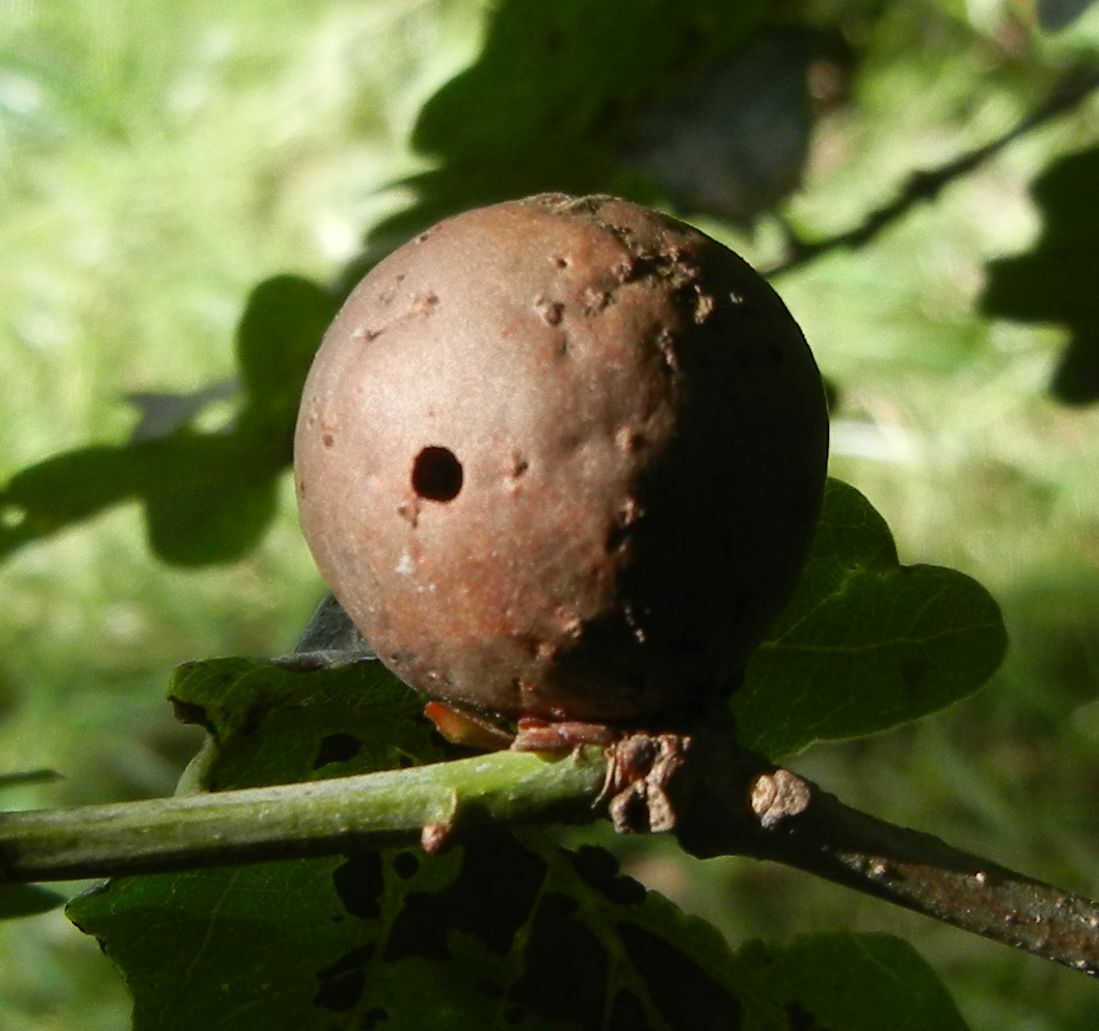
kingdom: Animalia
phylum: Arthropoda
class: Insecta
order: Hymenoptera
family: Cynipidae
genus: Andricus
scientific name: Andricus kollari
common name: Marble gall
